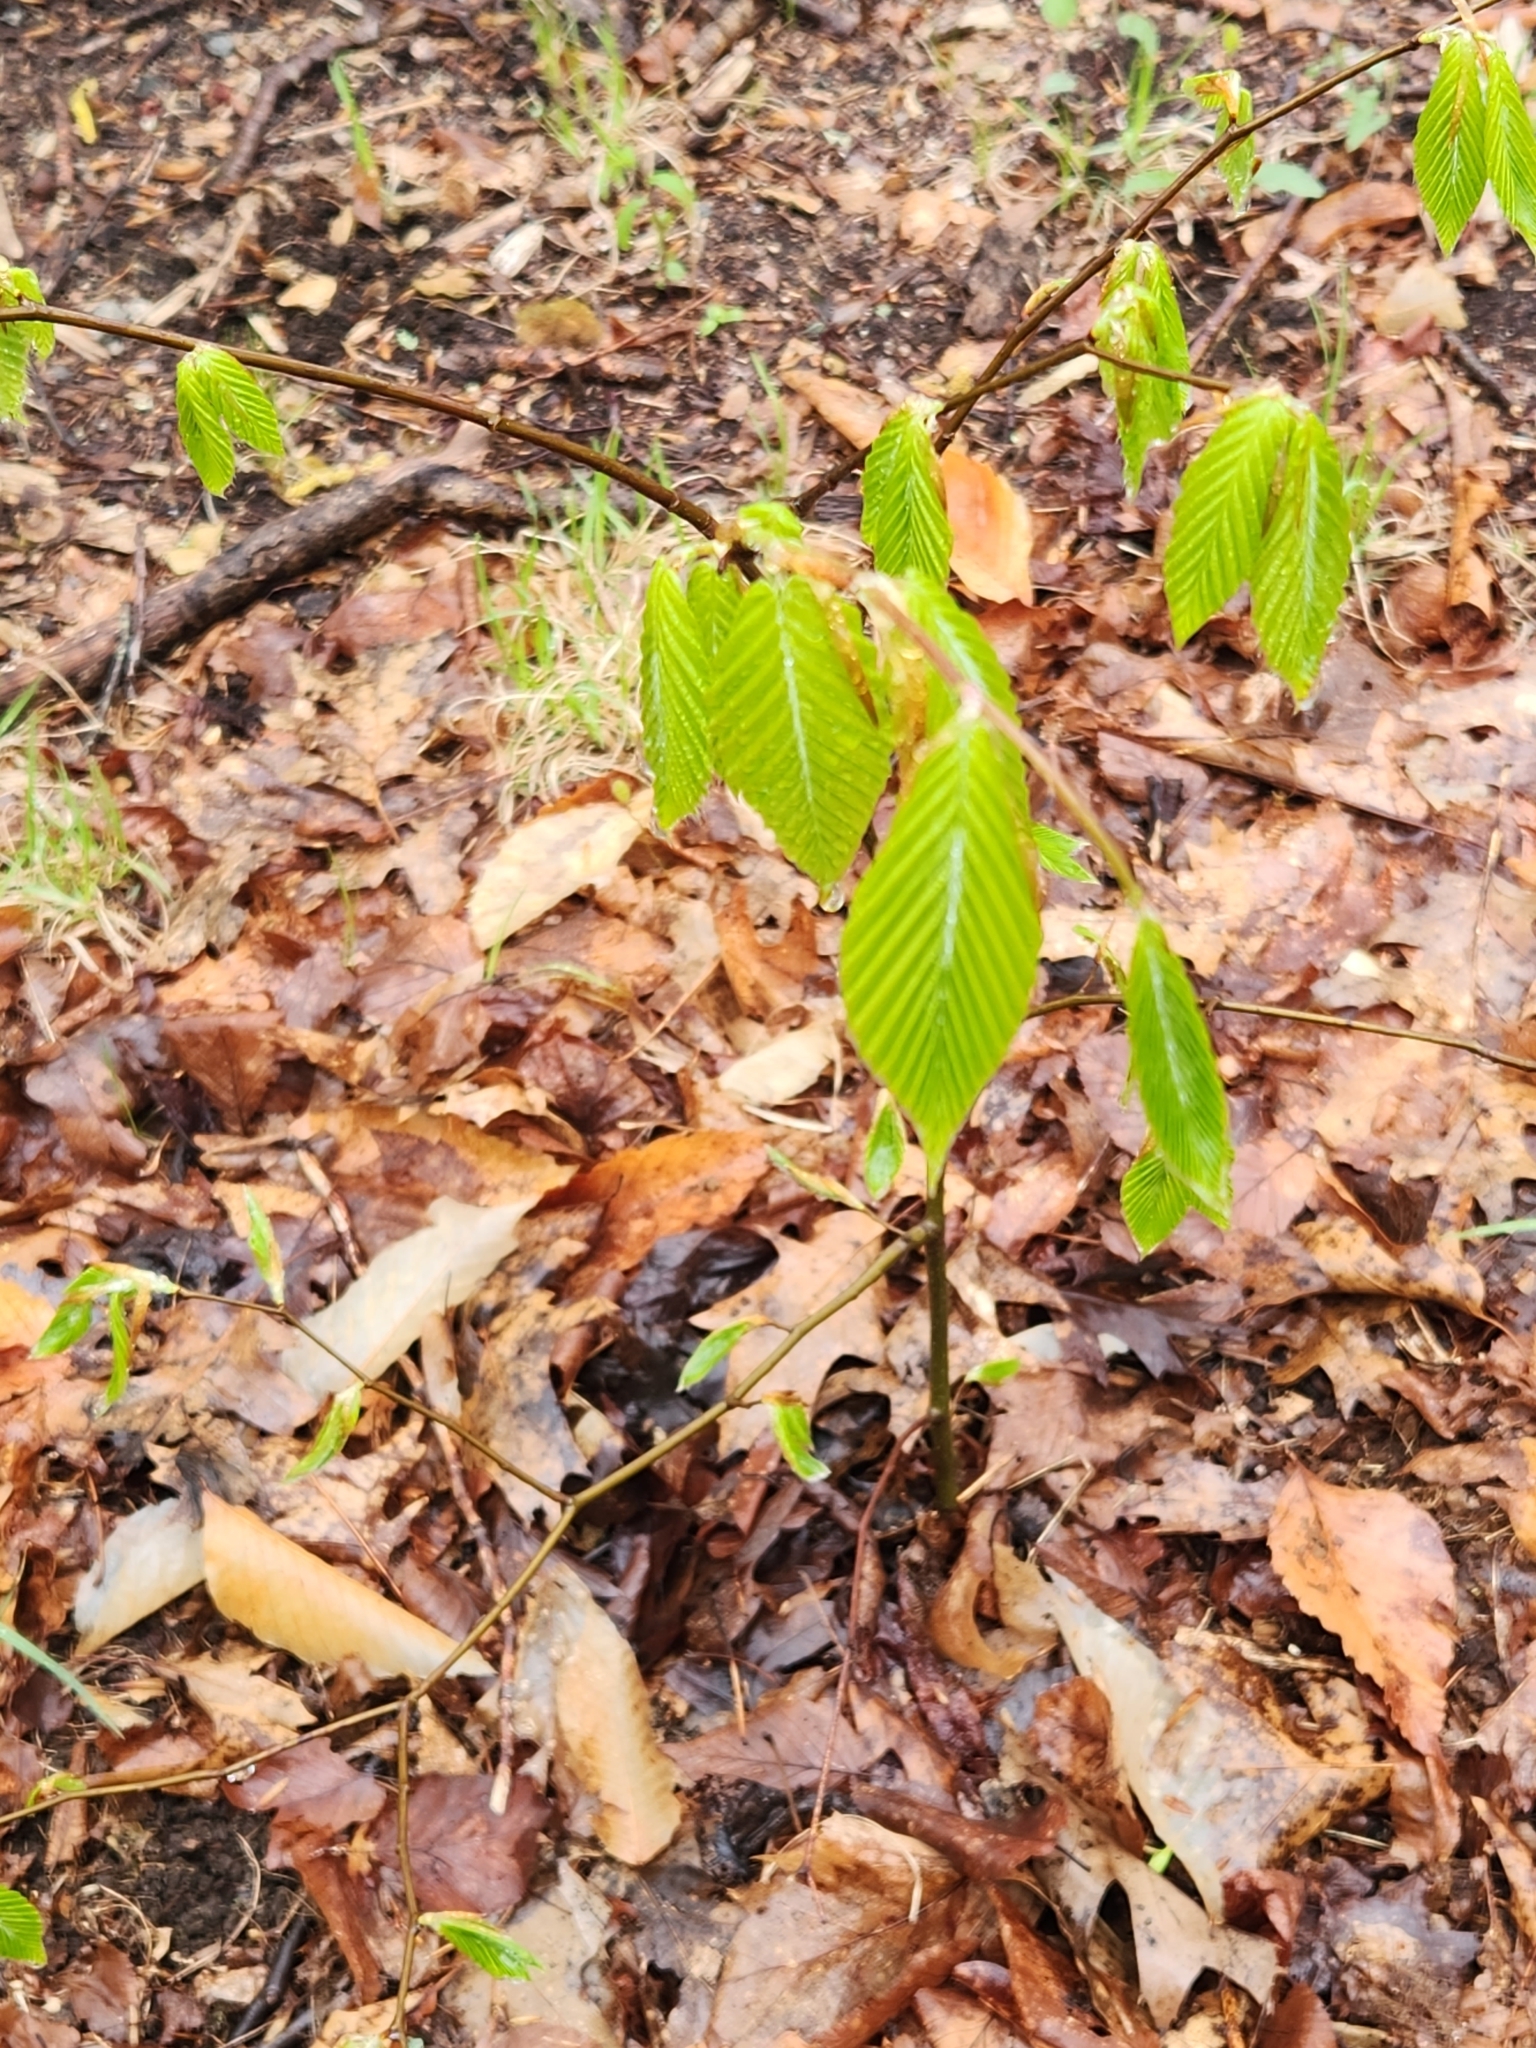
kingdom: Plantae
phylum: Tracheophyta
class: Magnoliopsida
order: Fagales
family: Fagaceae
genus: Fagus
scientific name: Fagus grandifolia
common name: American beech
